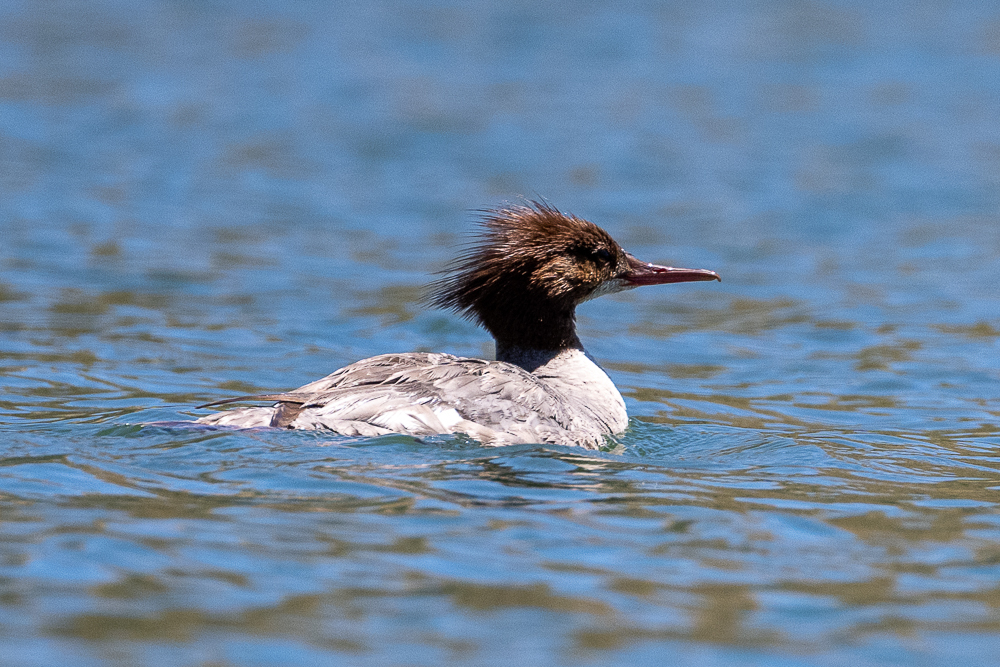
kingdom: Animalia
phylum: Chordata
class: Aves
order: Anseriformes
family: Anatidae
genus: Mergus
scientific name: Mergus merganser
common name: Common merganser
